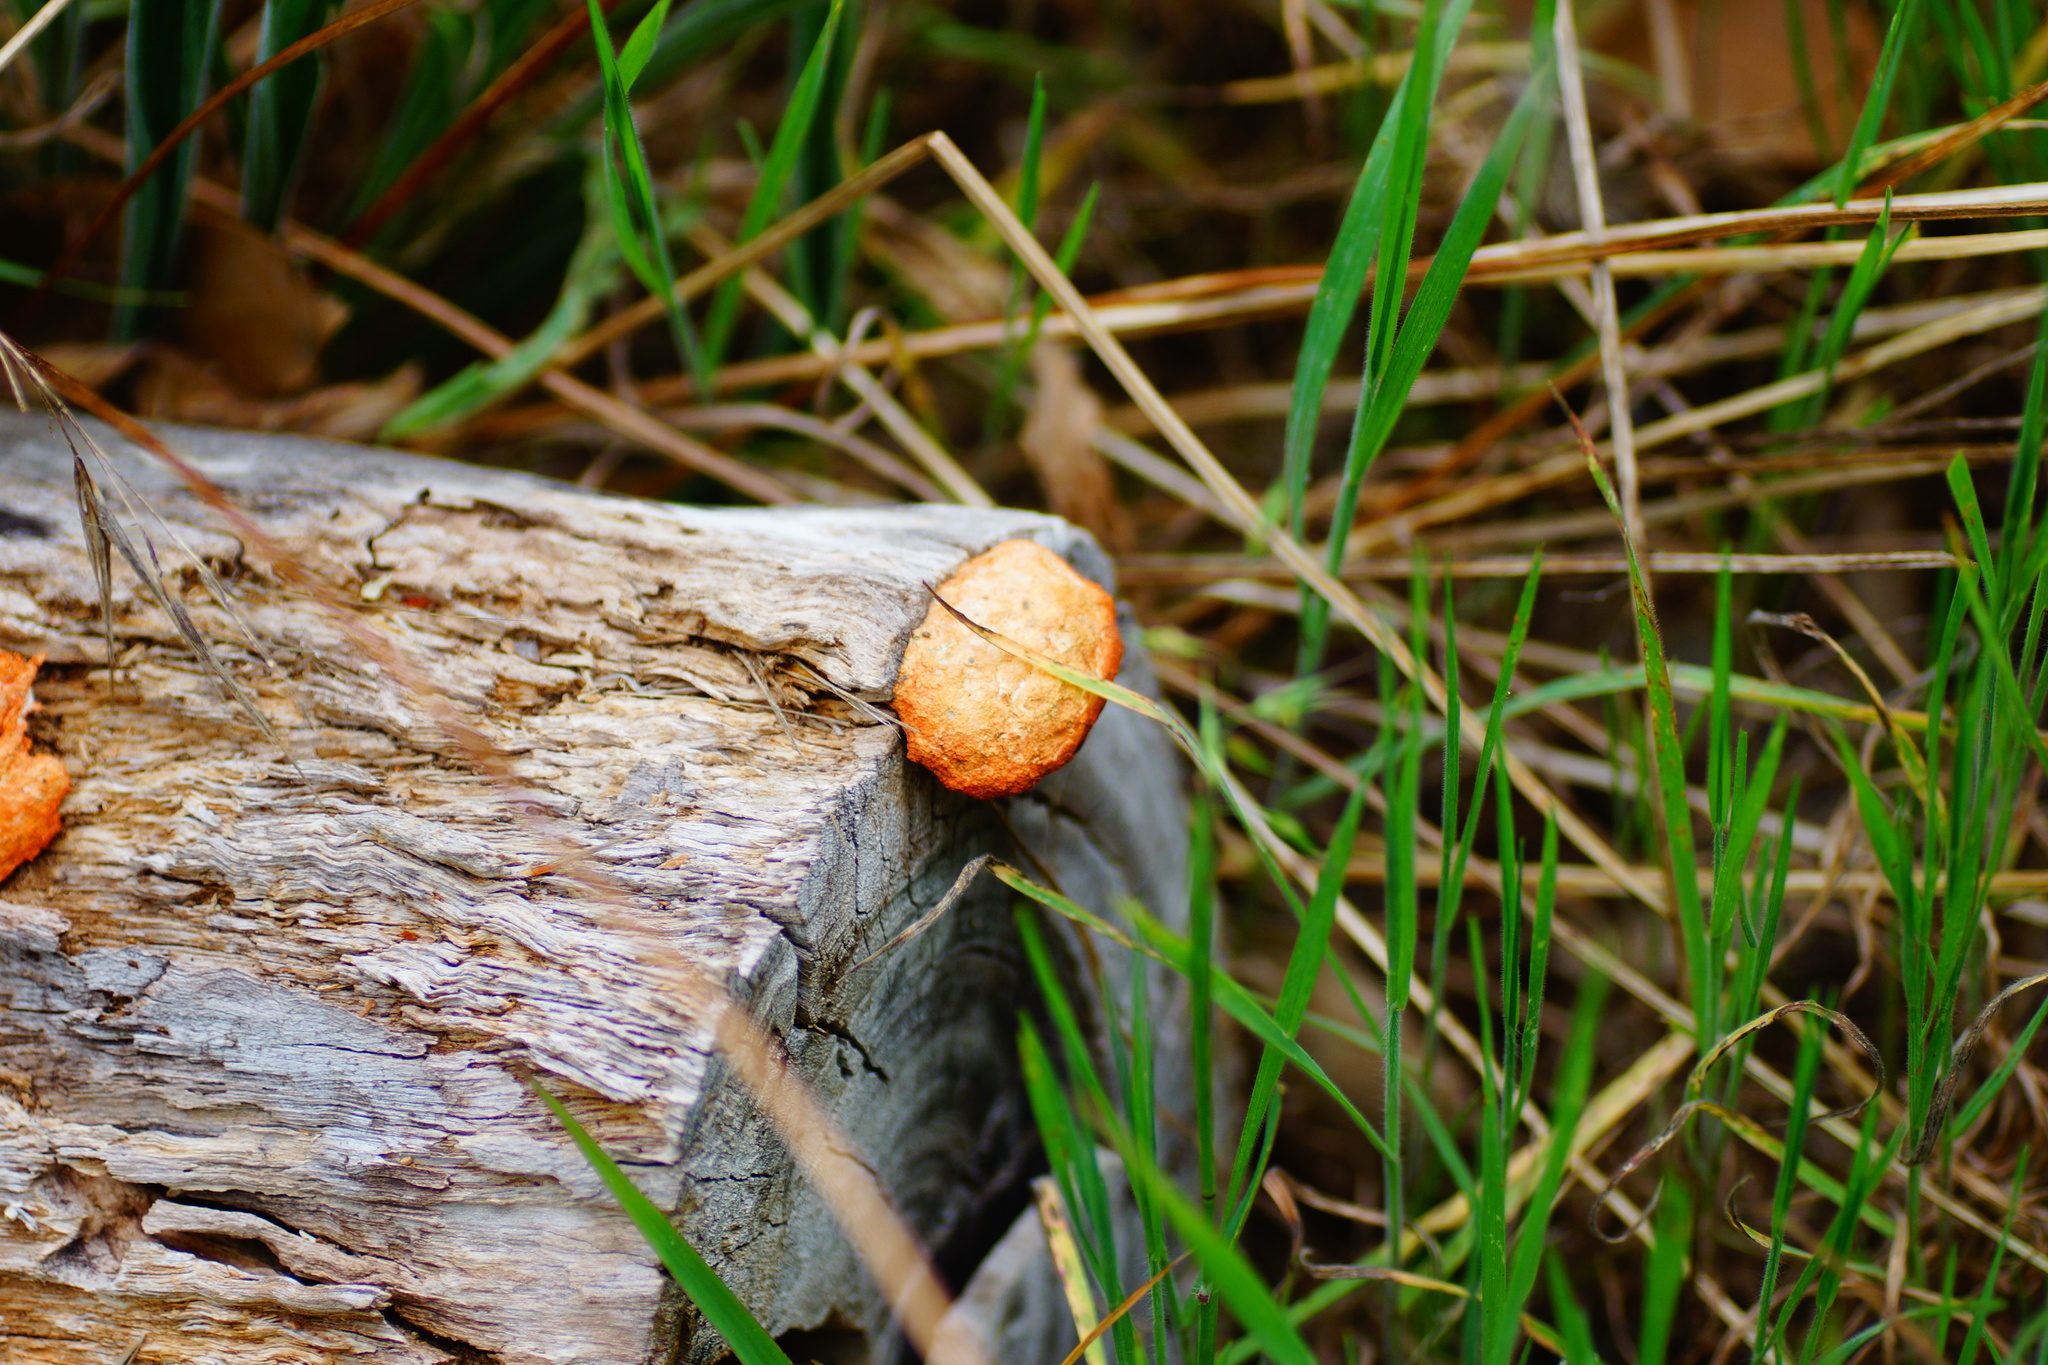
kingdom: Fungi
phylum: Basidiomycota
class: Agaricomycetes
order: Polyporales
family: Polyporaceae
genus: Trametes
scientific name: Trametes coccinea
